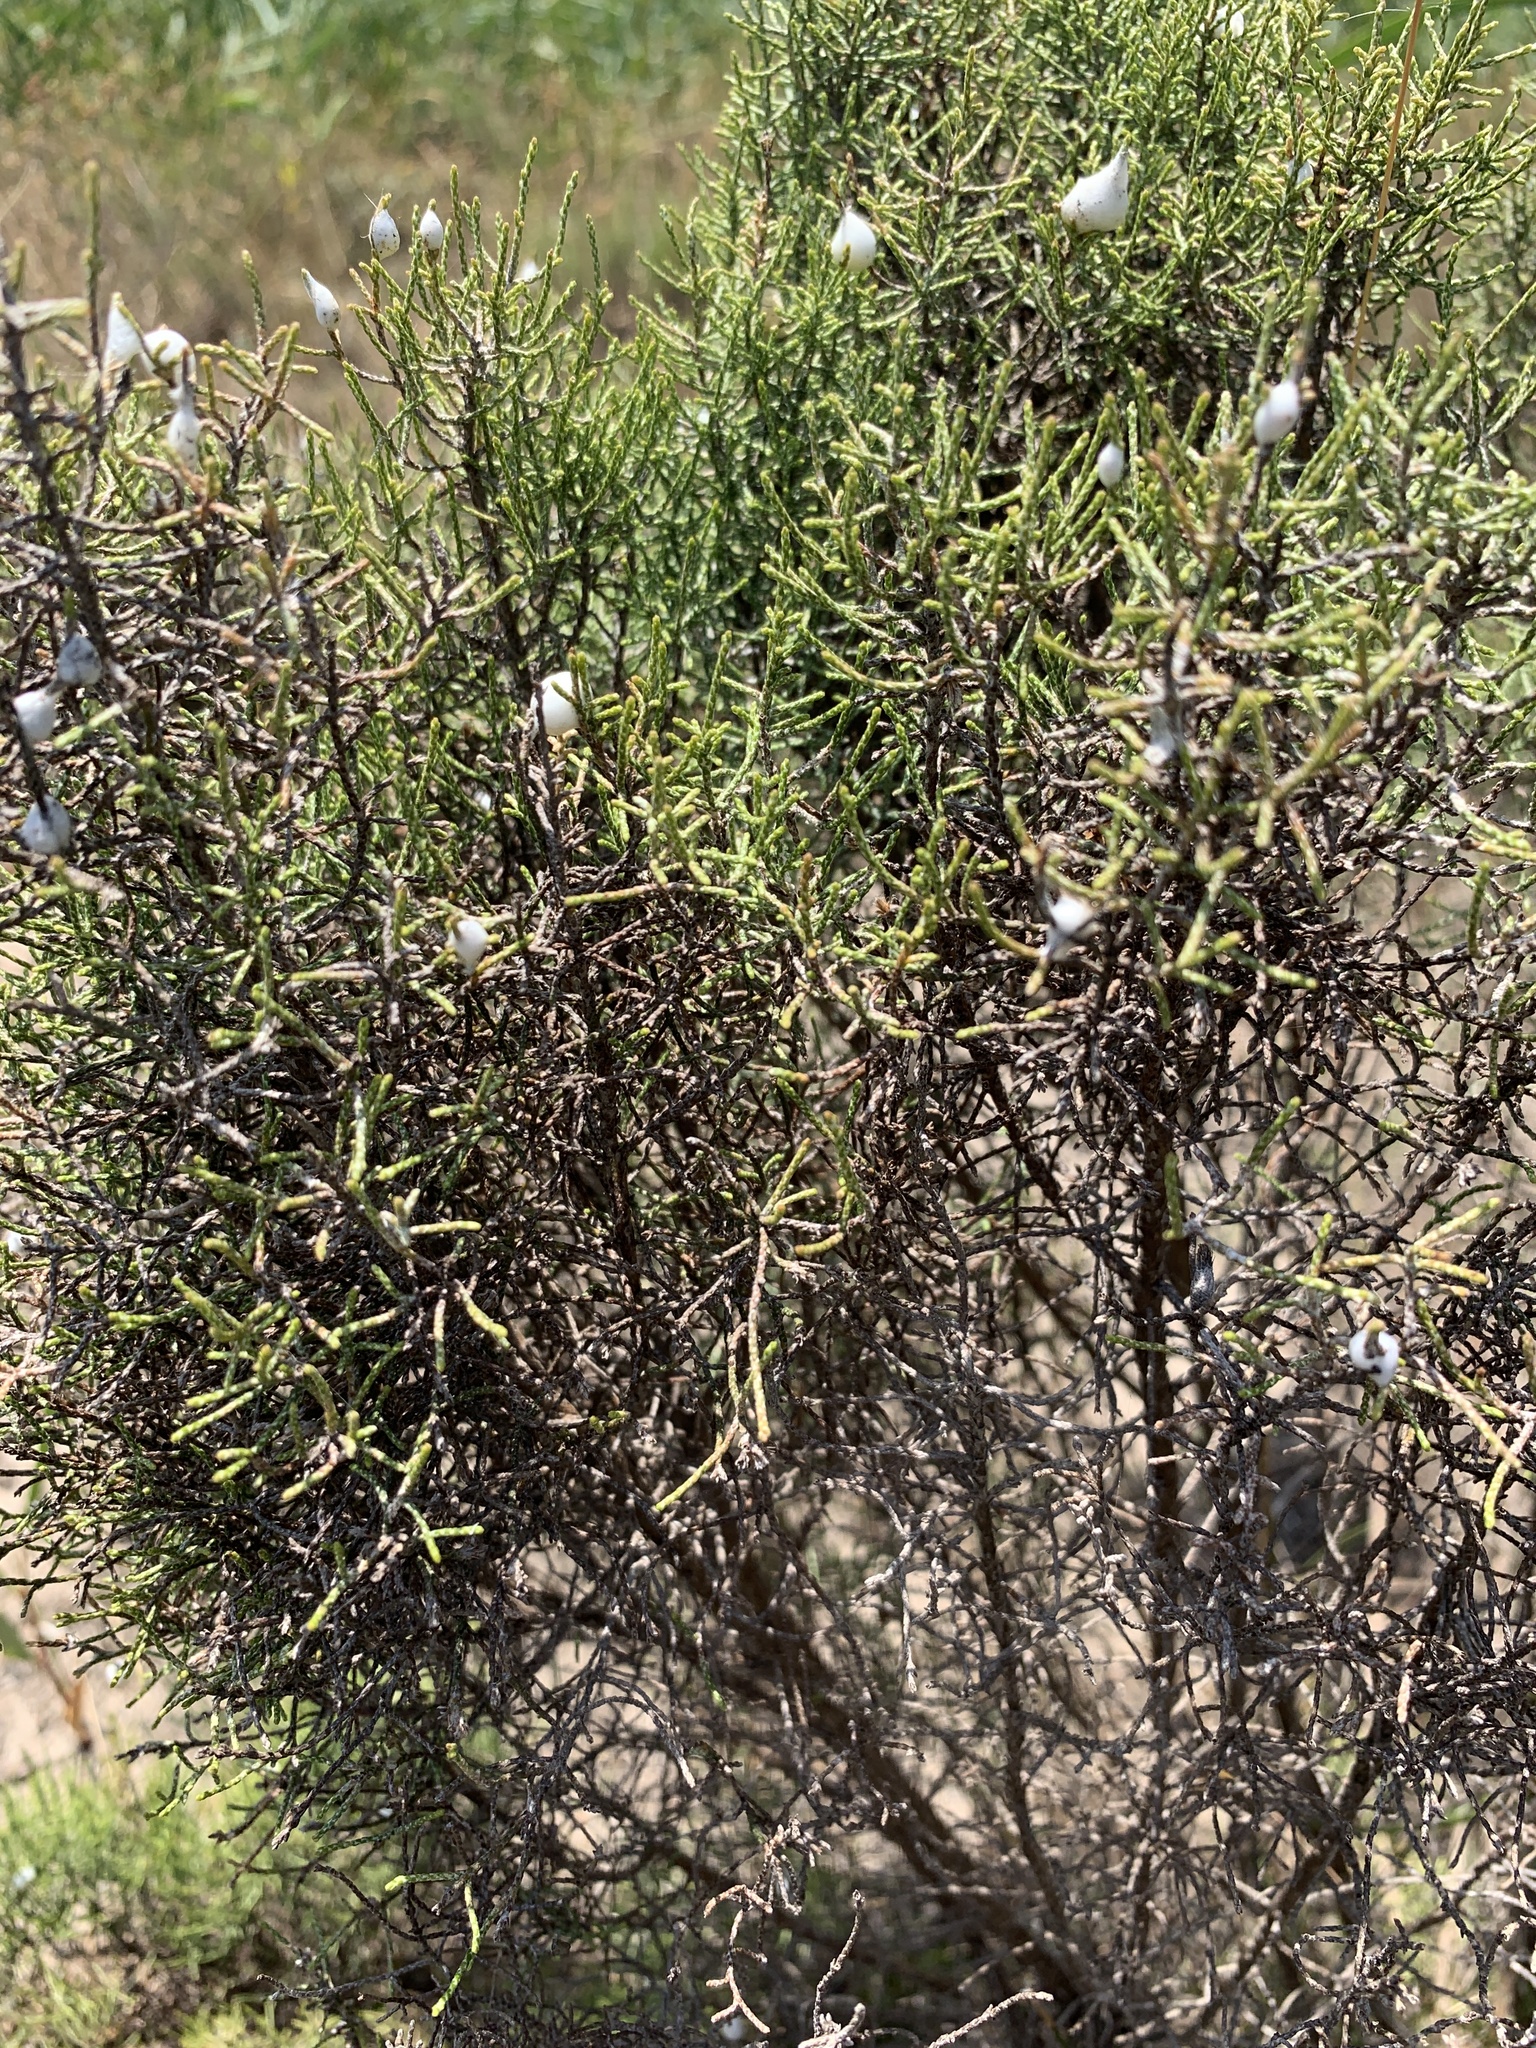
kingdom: Plantae
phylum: Tracheophyta
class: Magnoliopsida
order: Asterales
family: Asteraceae
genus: Dicerothamnus
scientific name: Dicerothamnus rhinocerotis
